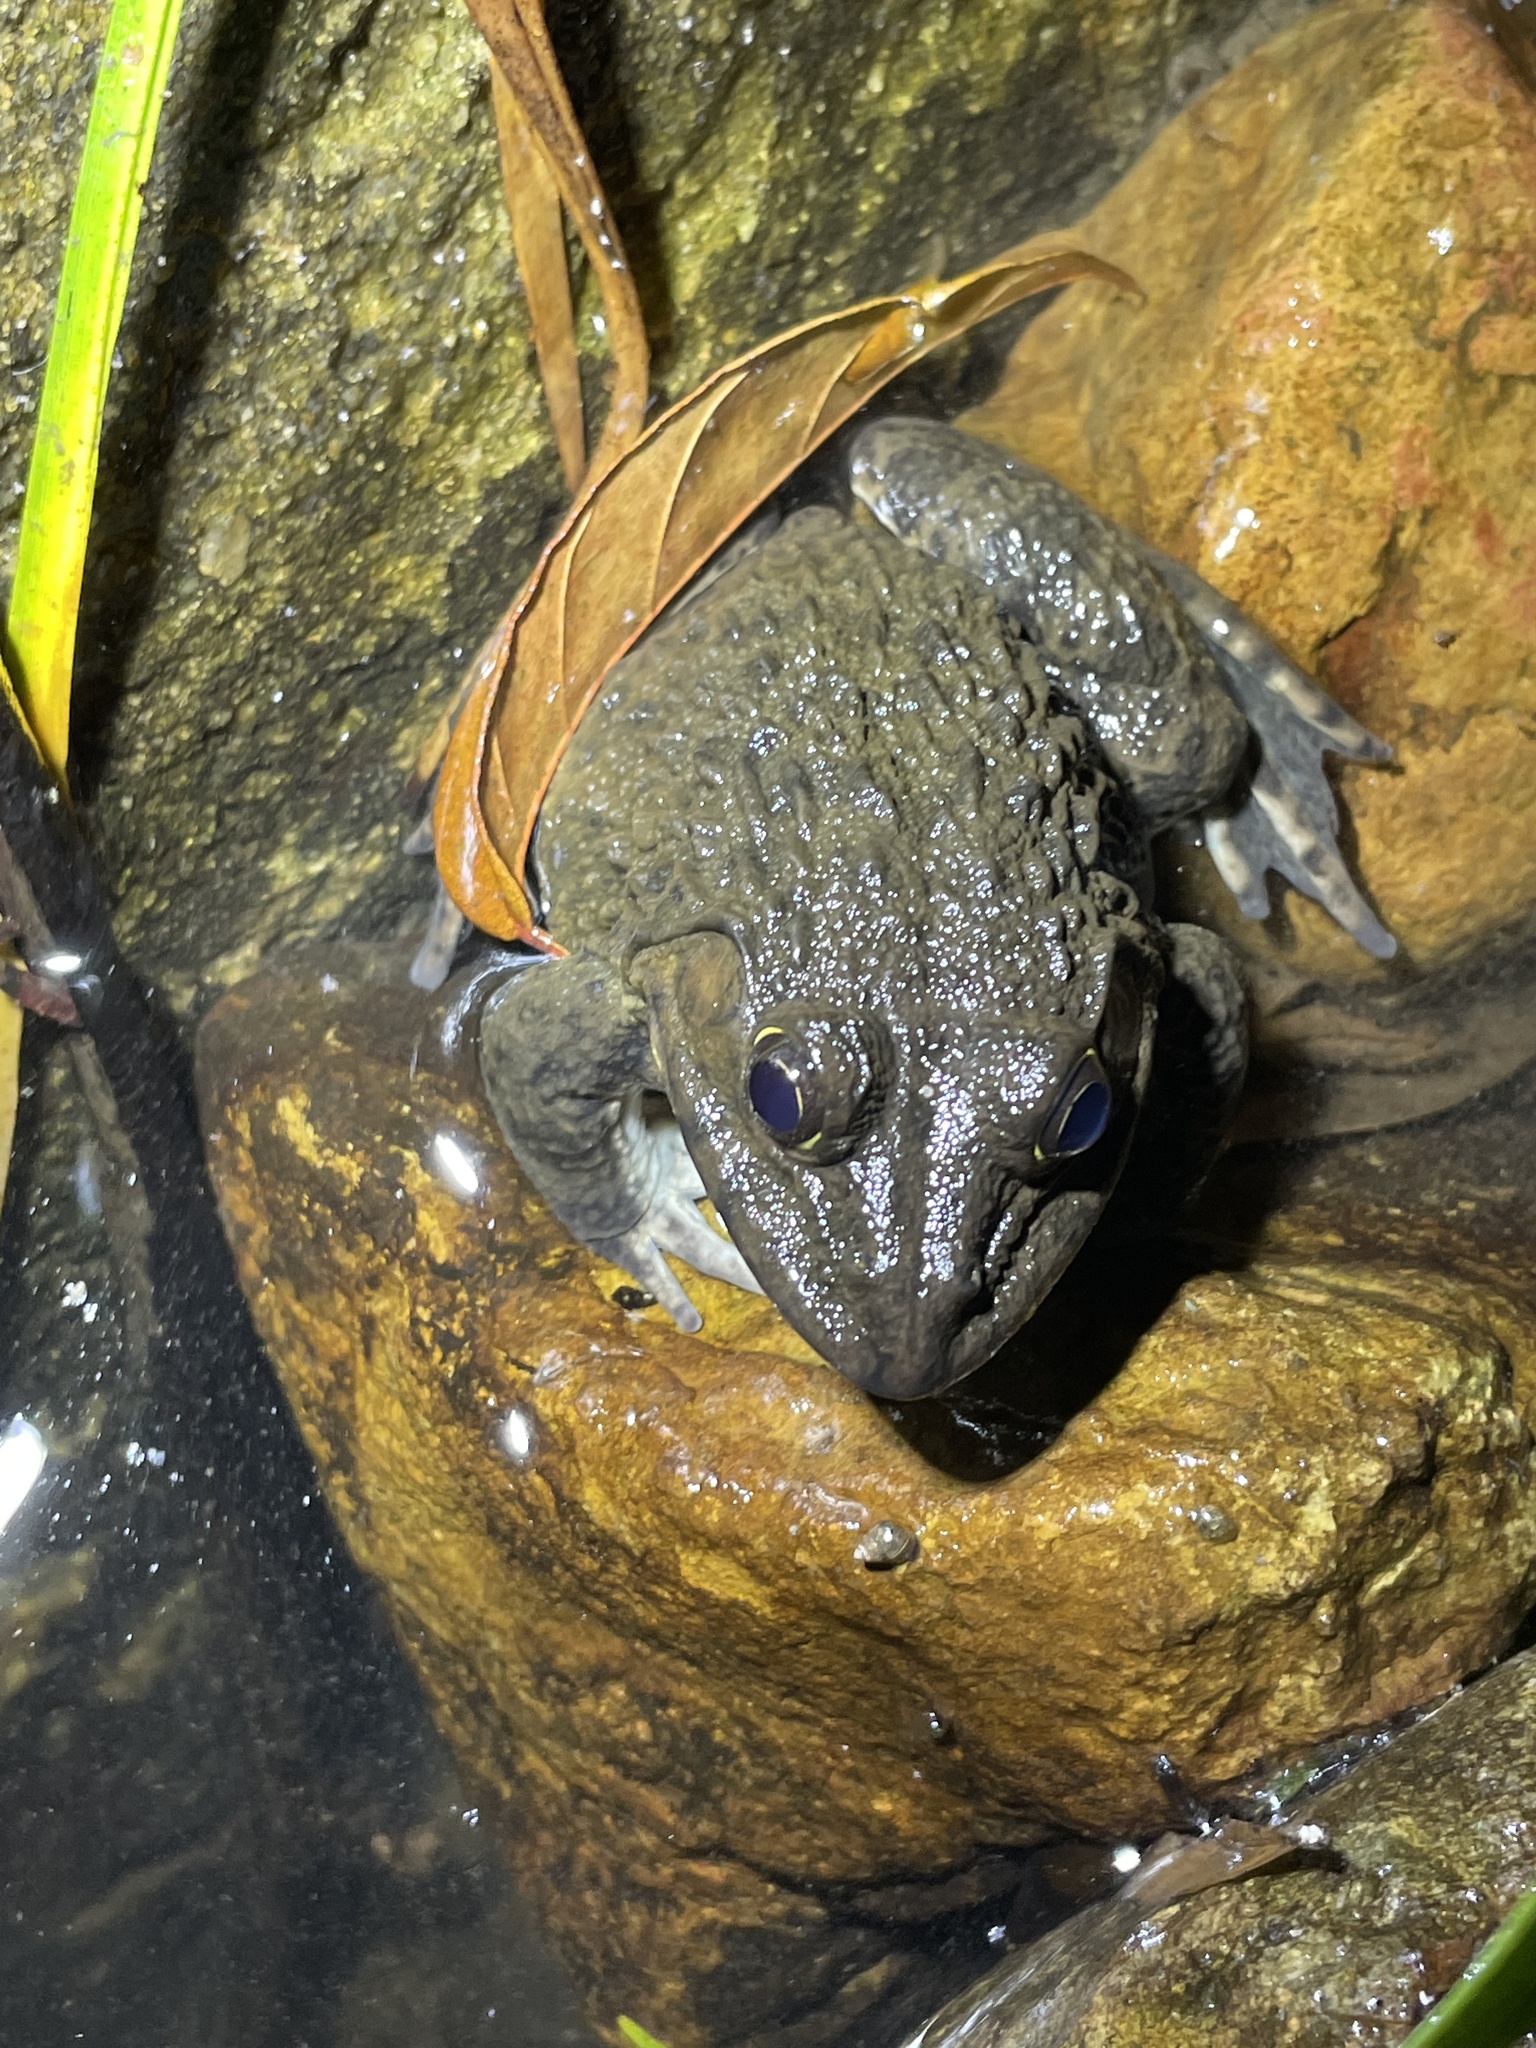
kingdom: Animalia
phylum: Chordata
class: Amphibia
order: Anura
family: Dicroglossidae
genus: Hoplobatrachus
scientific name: Hoplobatrachus rugulosus
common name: Chinese edible frog
